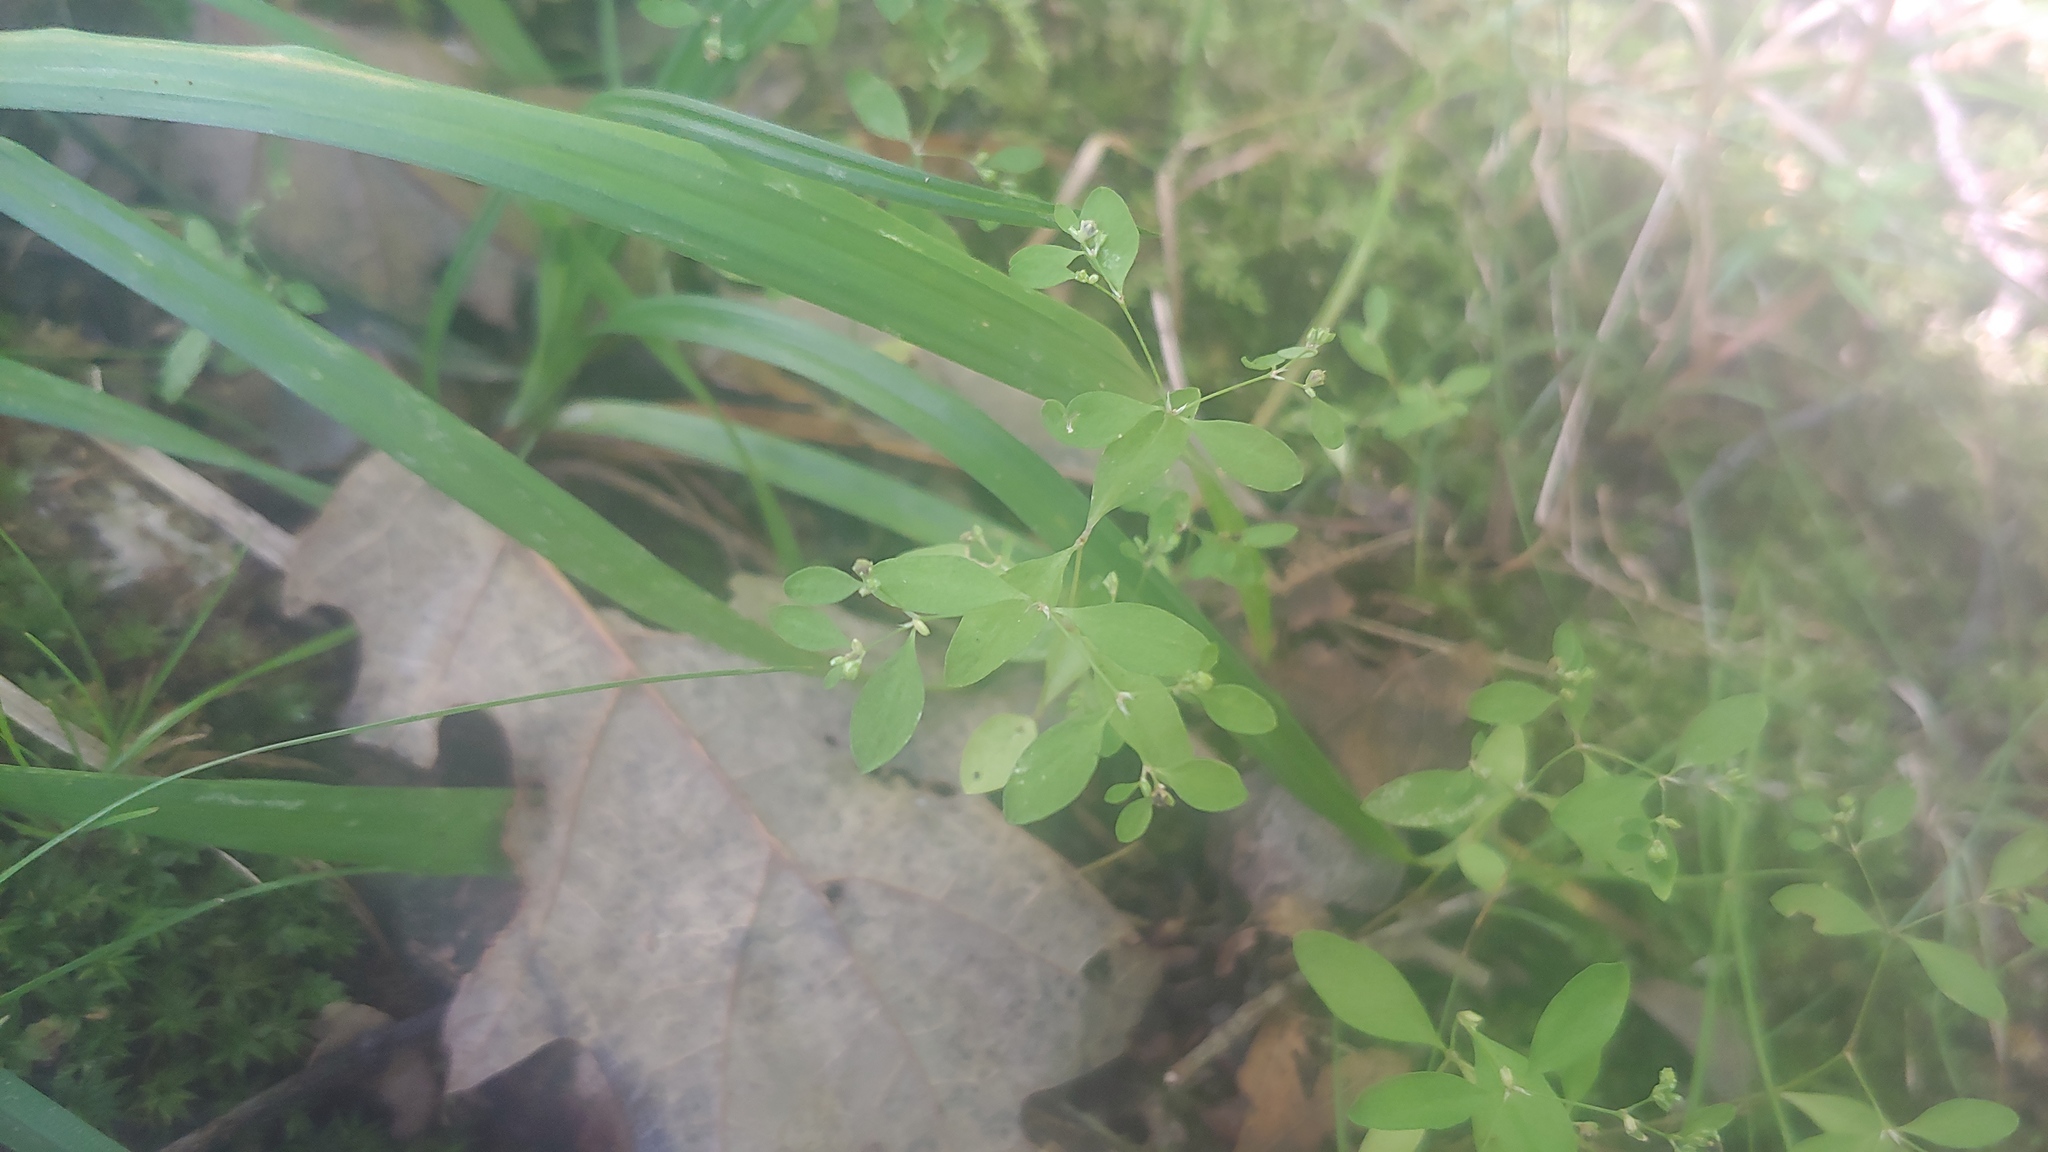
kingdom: Plantae
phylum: Tracheophyta
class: Magnoliopsida
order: Caryophyllales
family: Caryophyllaceae
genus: Paronychia
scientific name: Paronychia canadensis
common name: Canada forked nailwort
